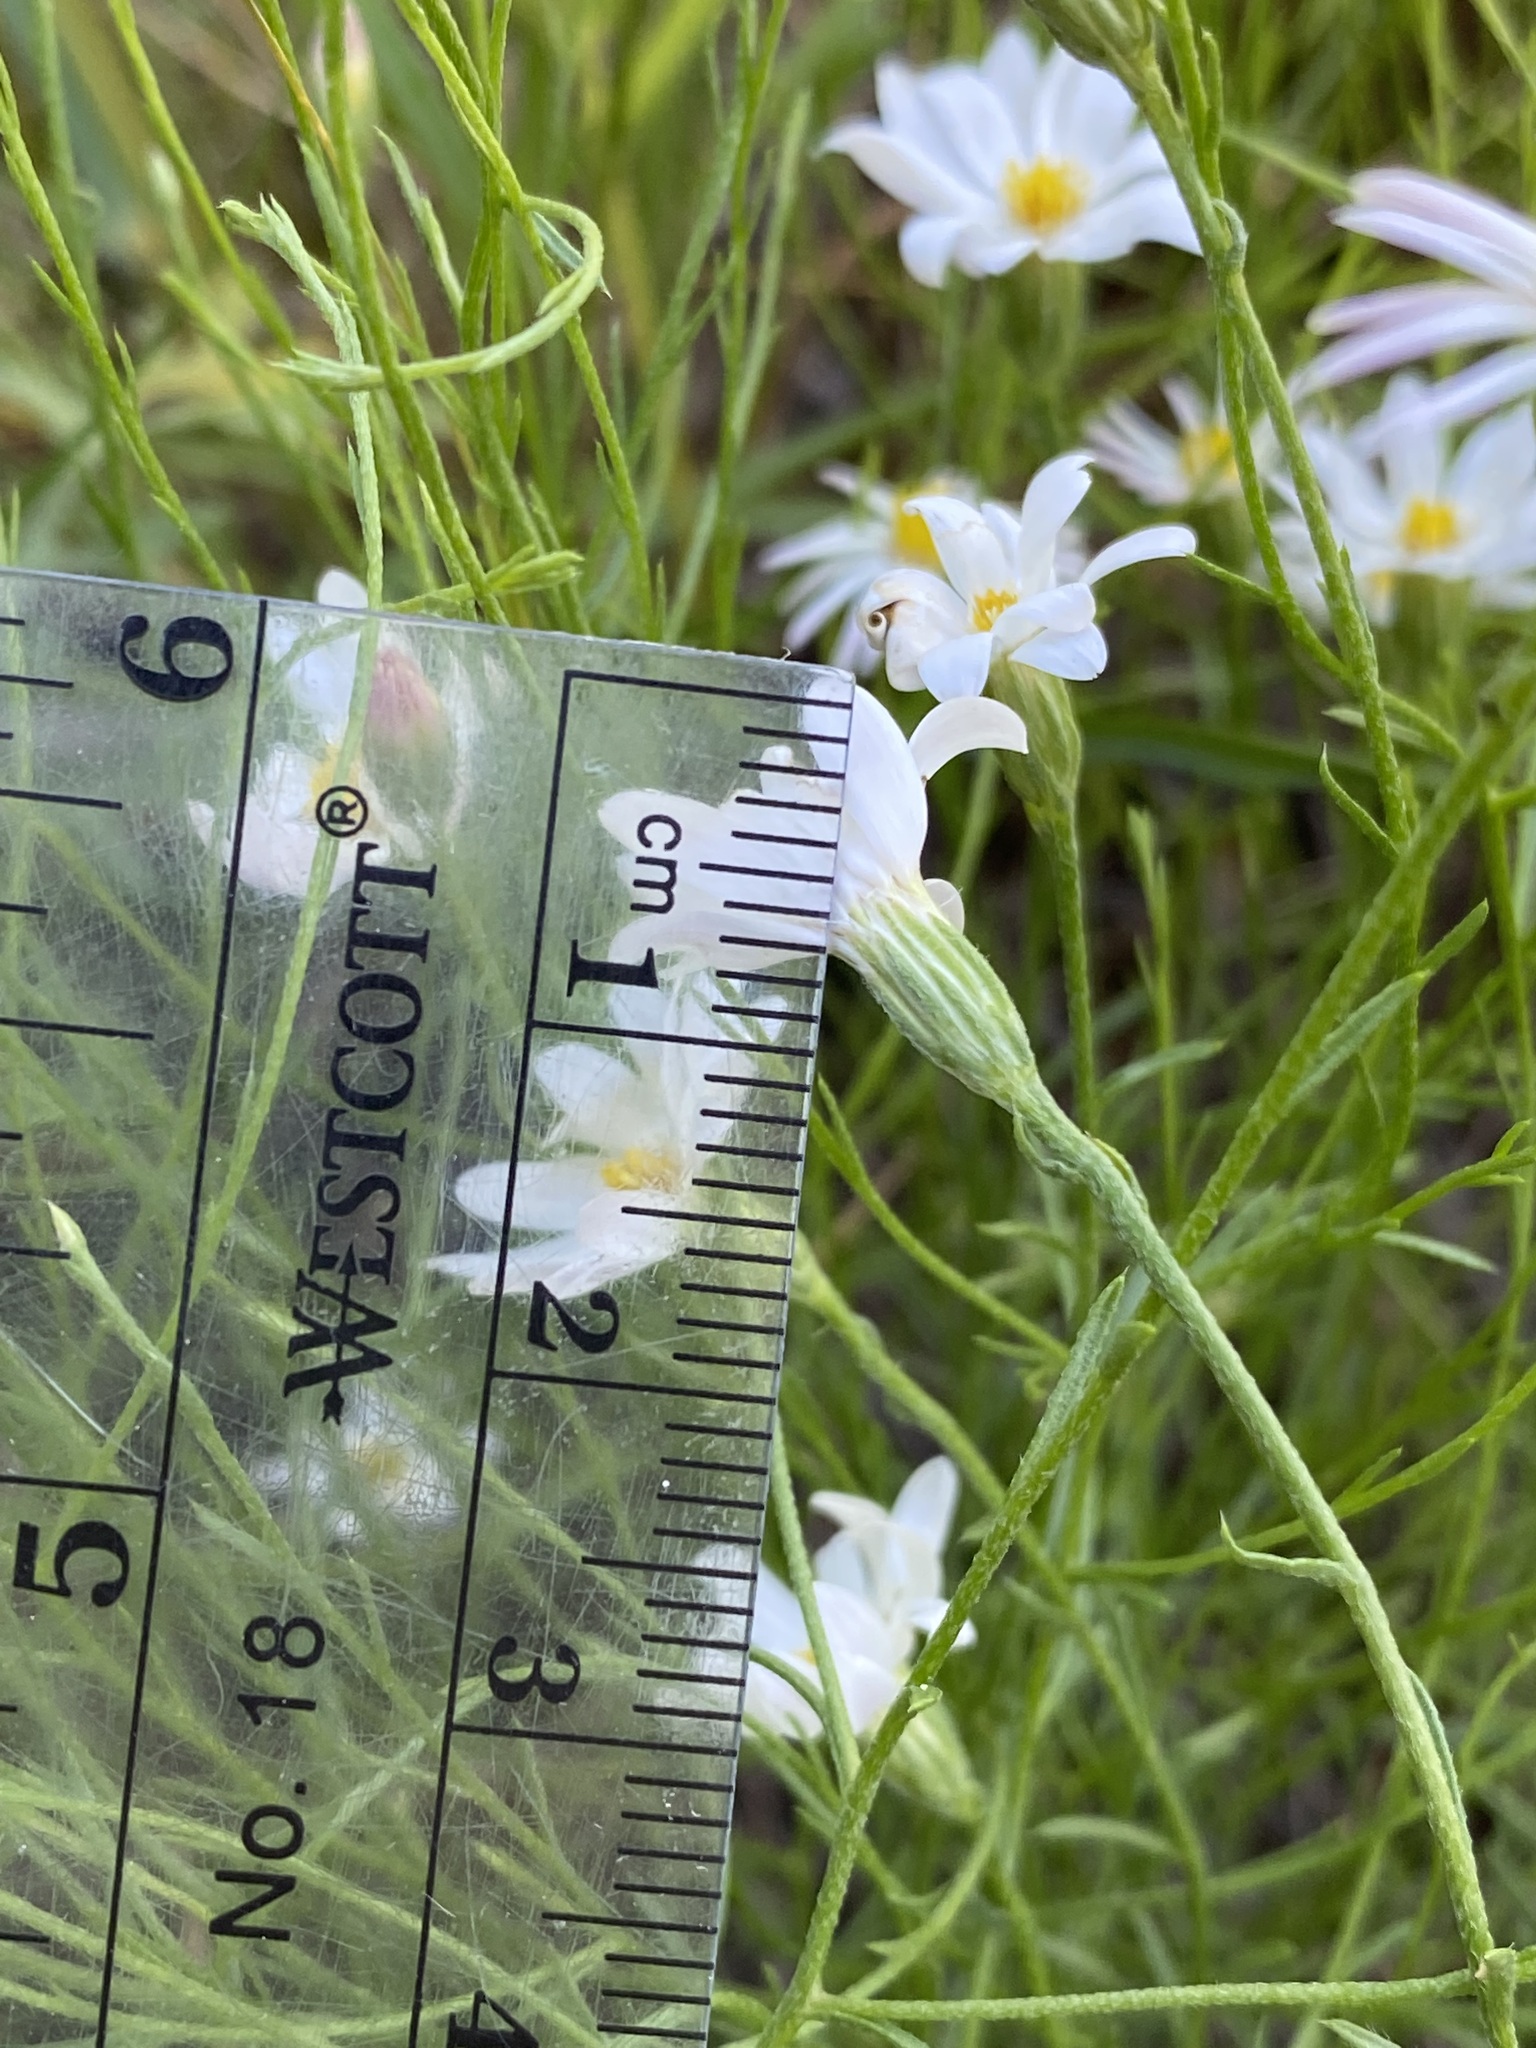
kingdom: Plantae
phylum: Tracheophyta
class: Magnoliopsida
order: Asterales
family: Asteraceae
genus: Chaetopappa
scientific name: Chaetopappa ericoides
